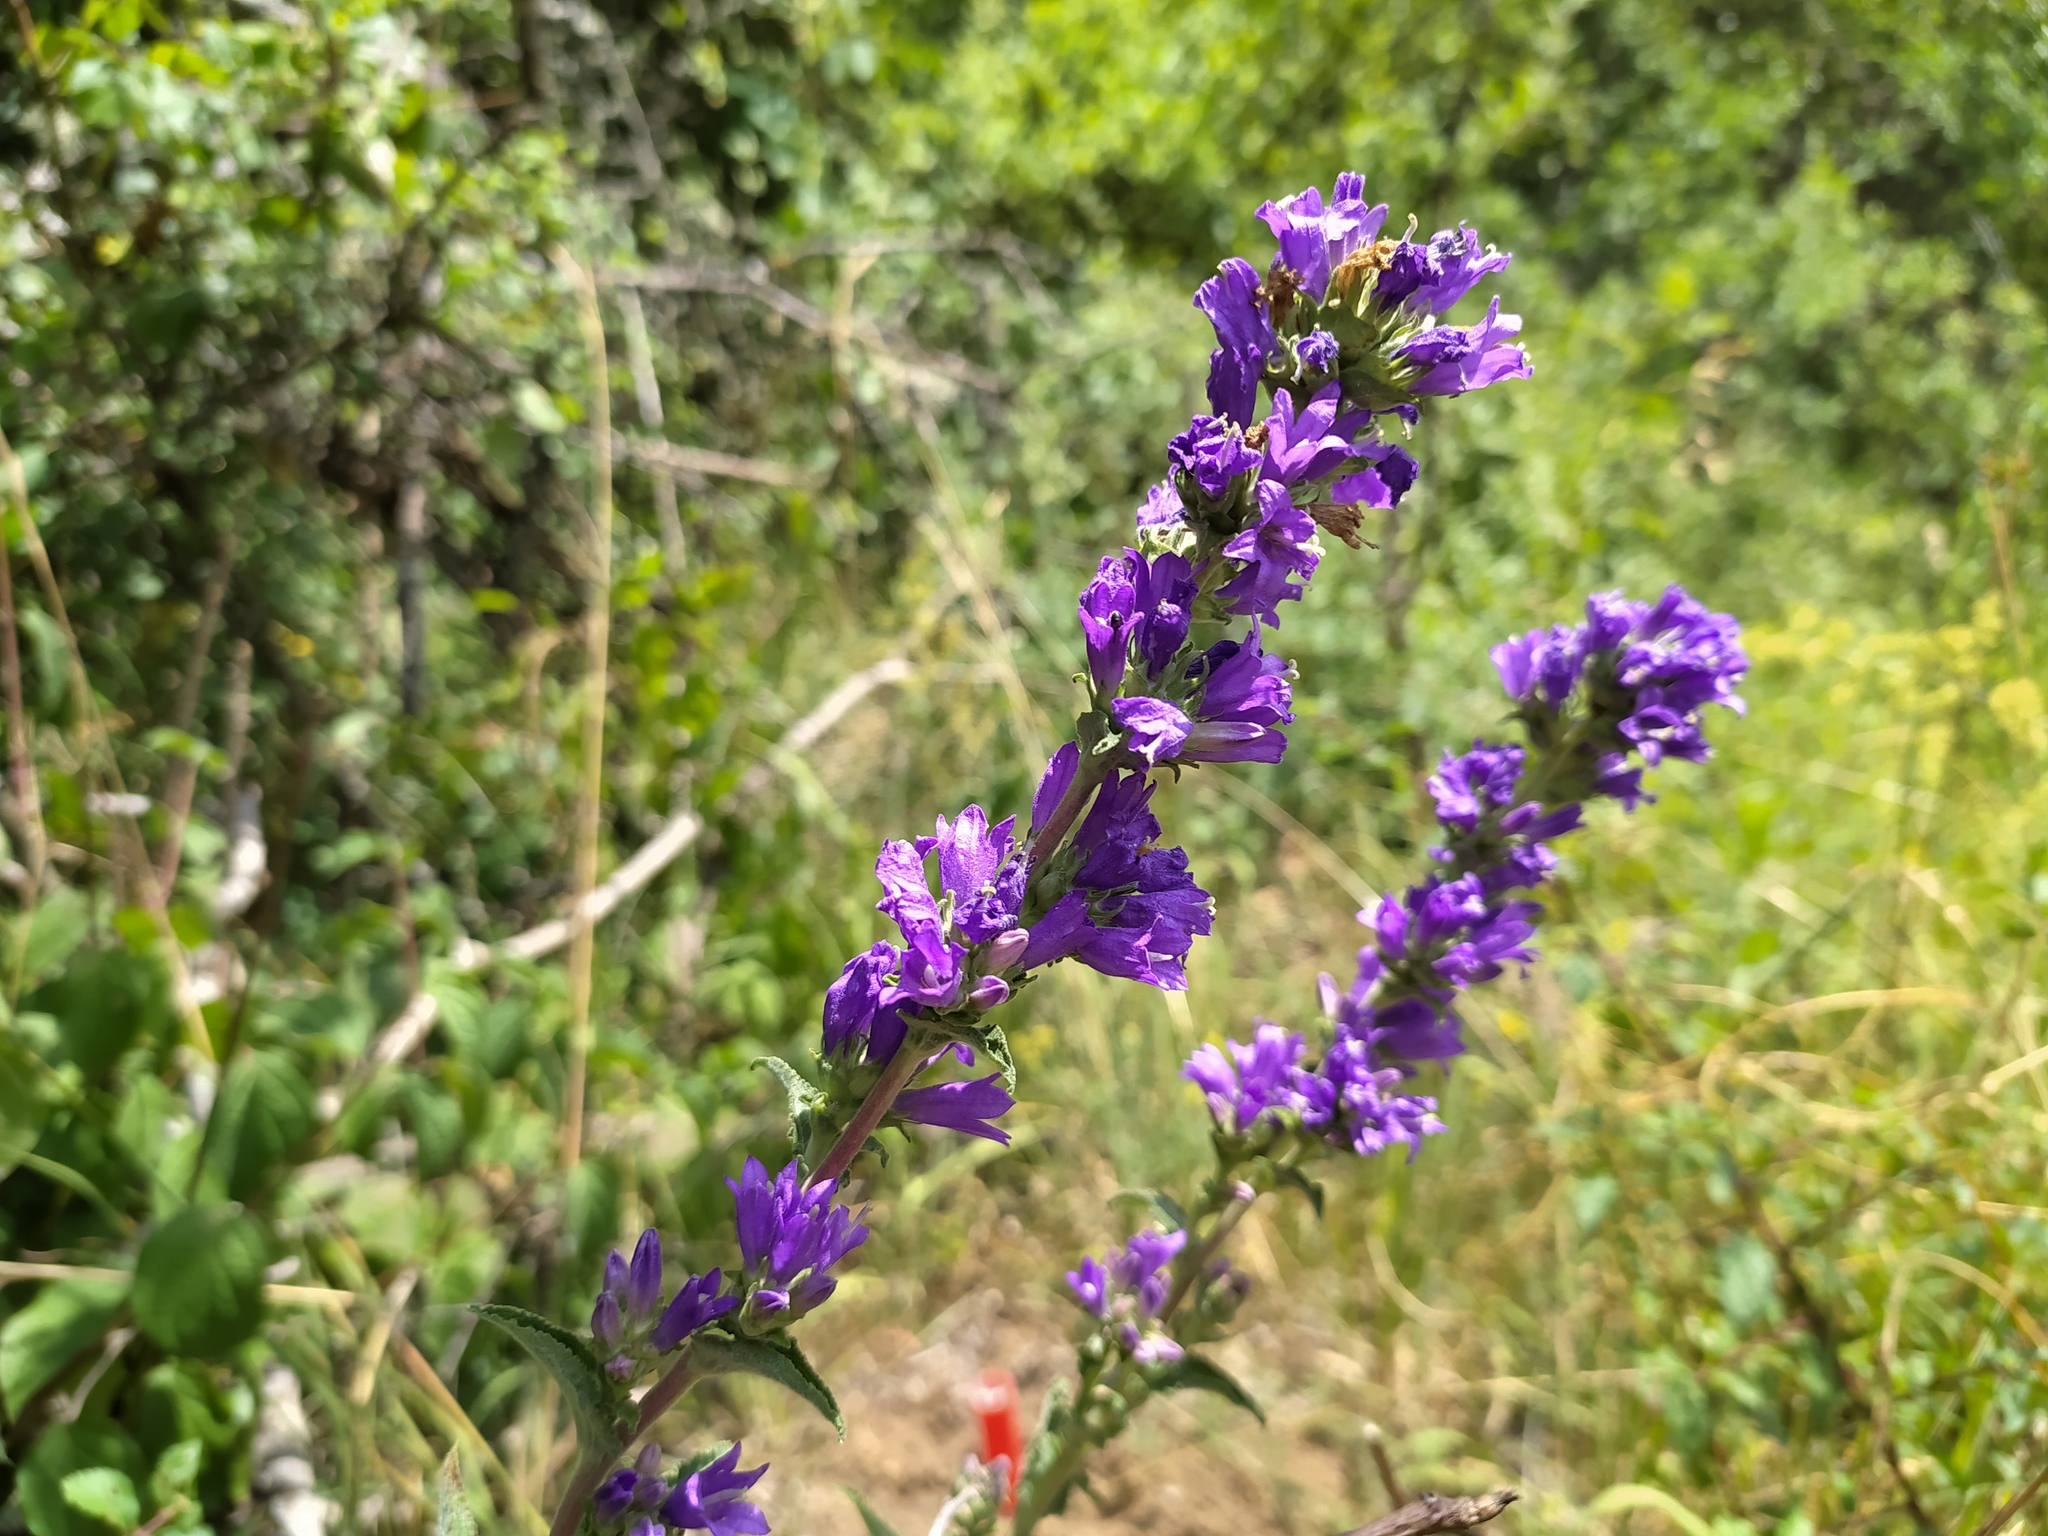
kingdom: Plantae
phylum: Tracheophyta
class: Magnoliopsida
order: Asterales
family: Campanulaceae
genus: Campanula
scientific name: Campanula glomerata
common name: Clustered bellflower
